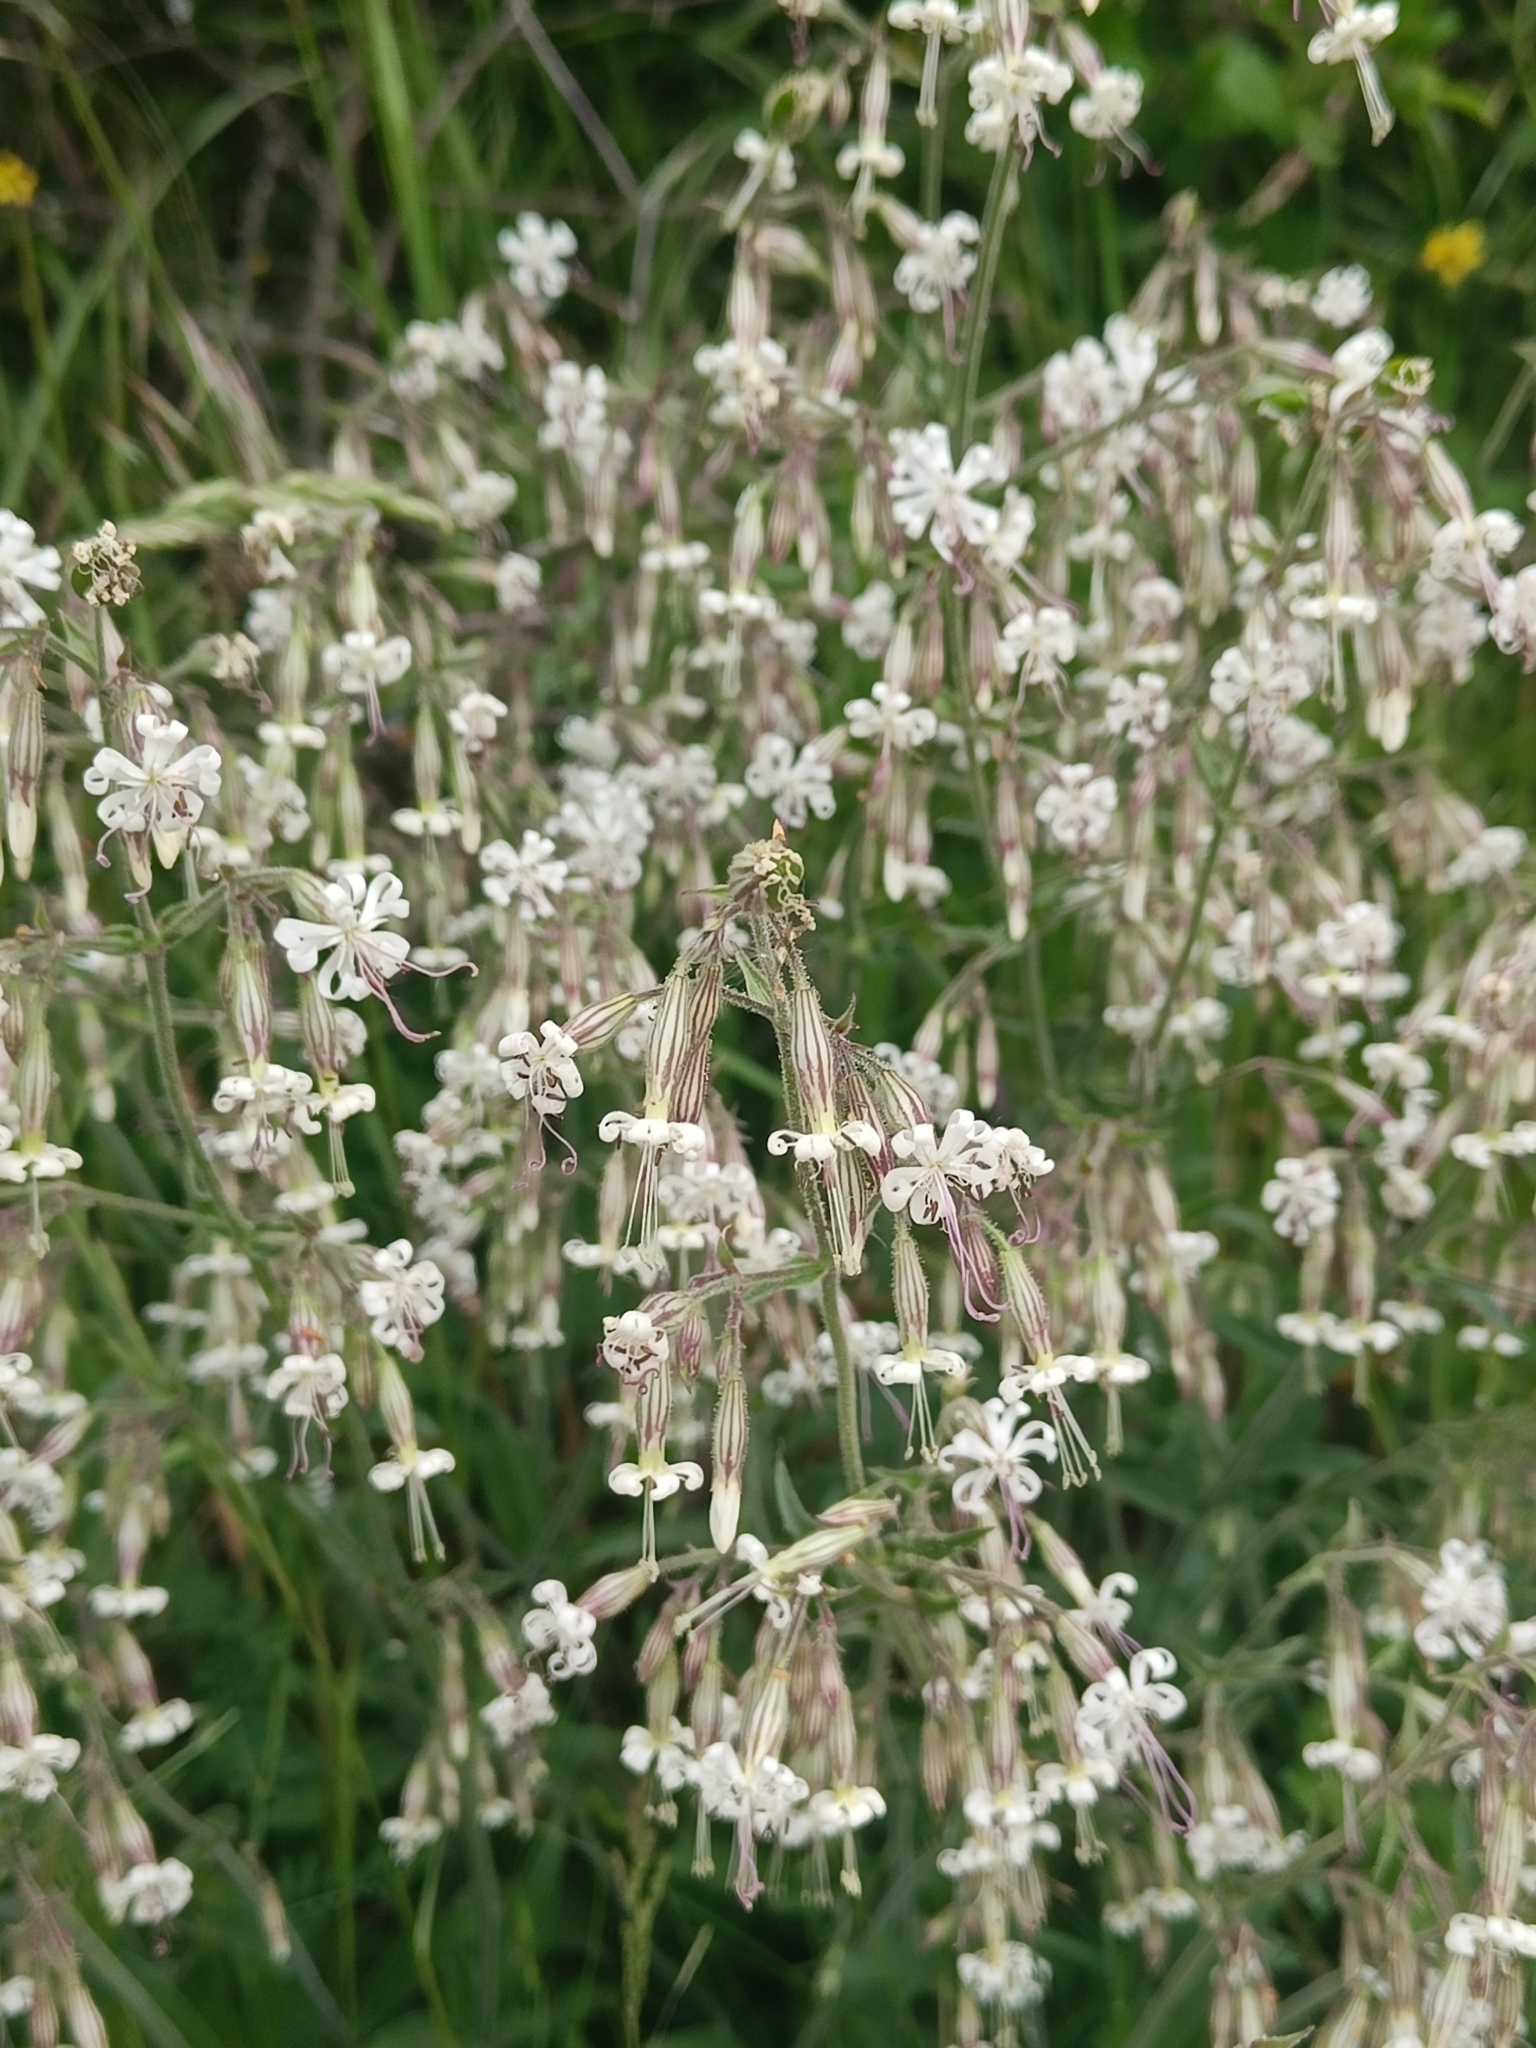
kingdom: Plantae
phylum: Tracheophyta
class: Magnoliopsida
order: Caryophyllales
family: Caryophyllaceae
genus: Silene
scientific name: Silene nutans
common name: Nottingham catchfly
